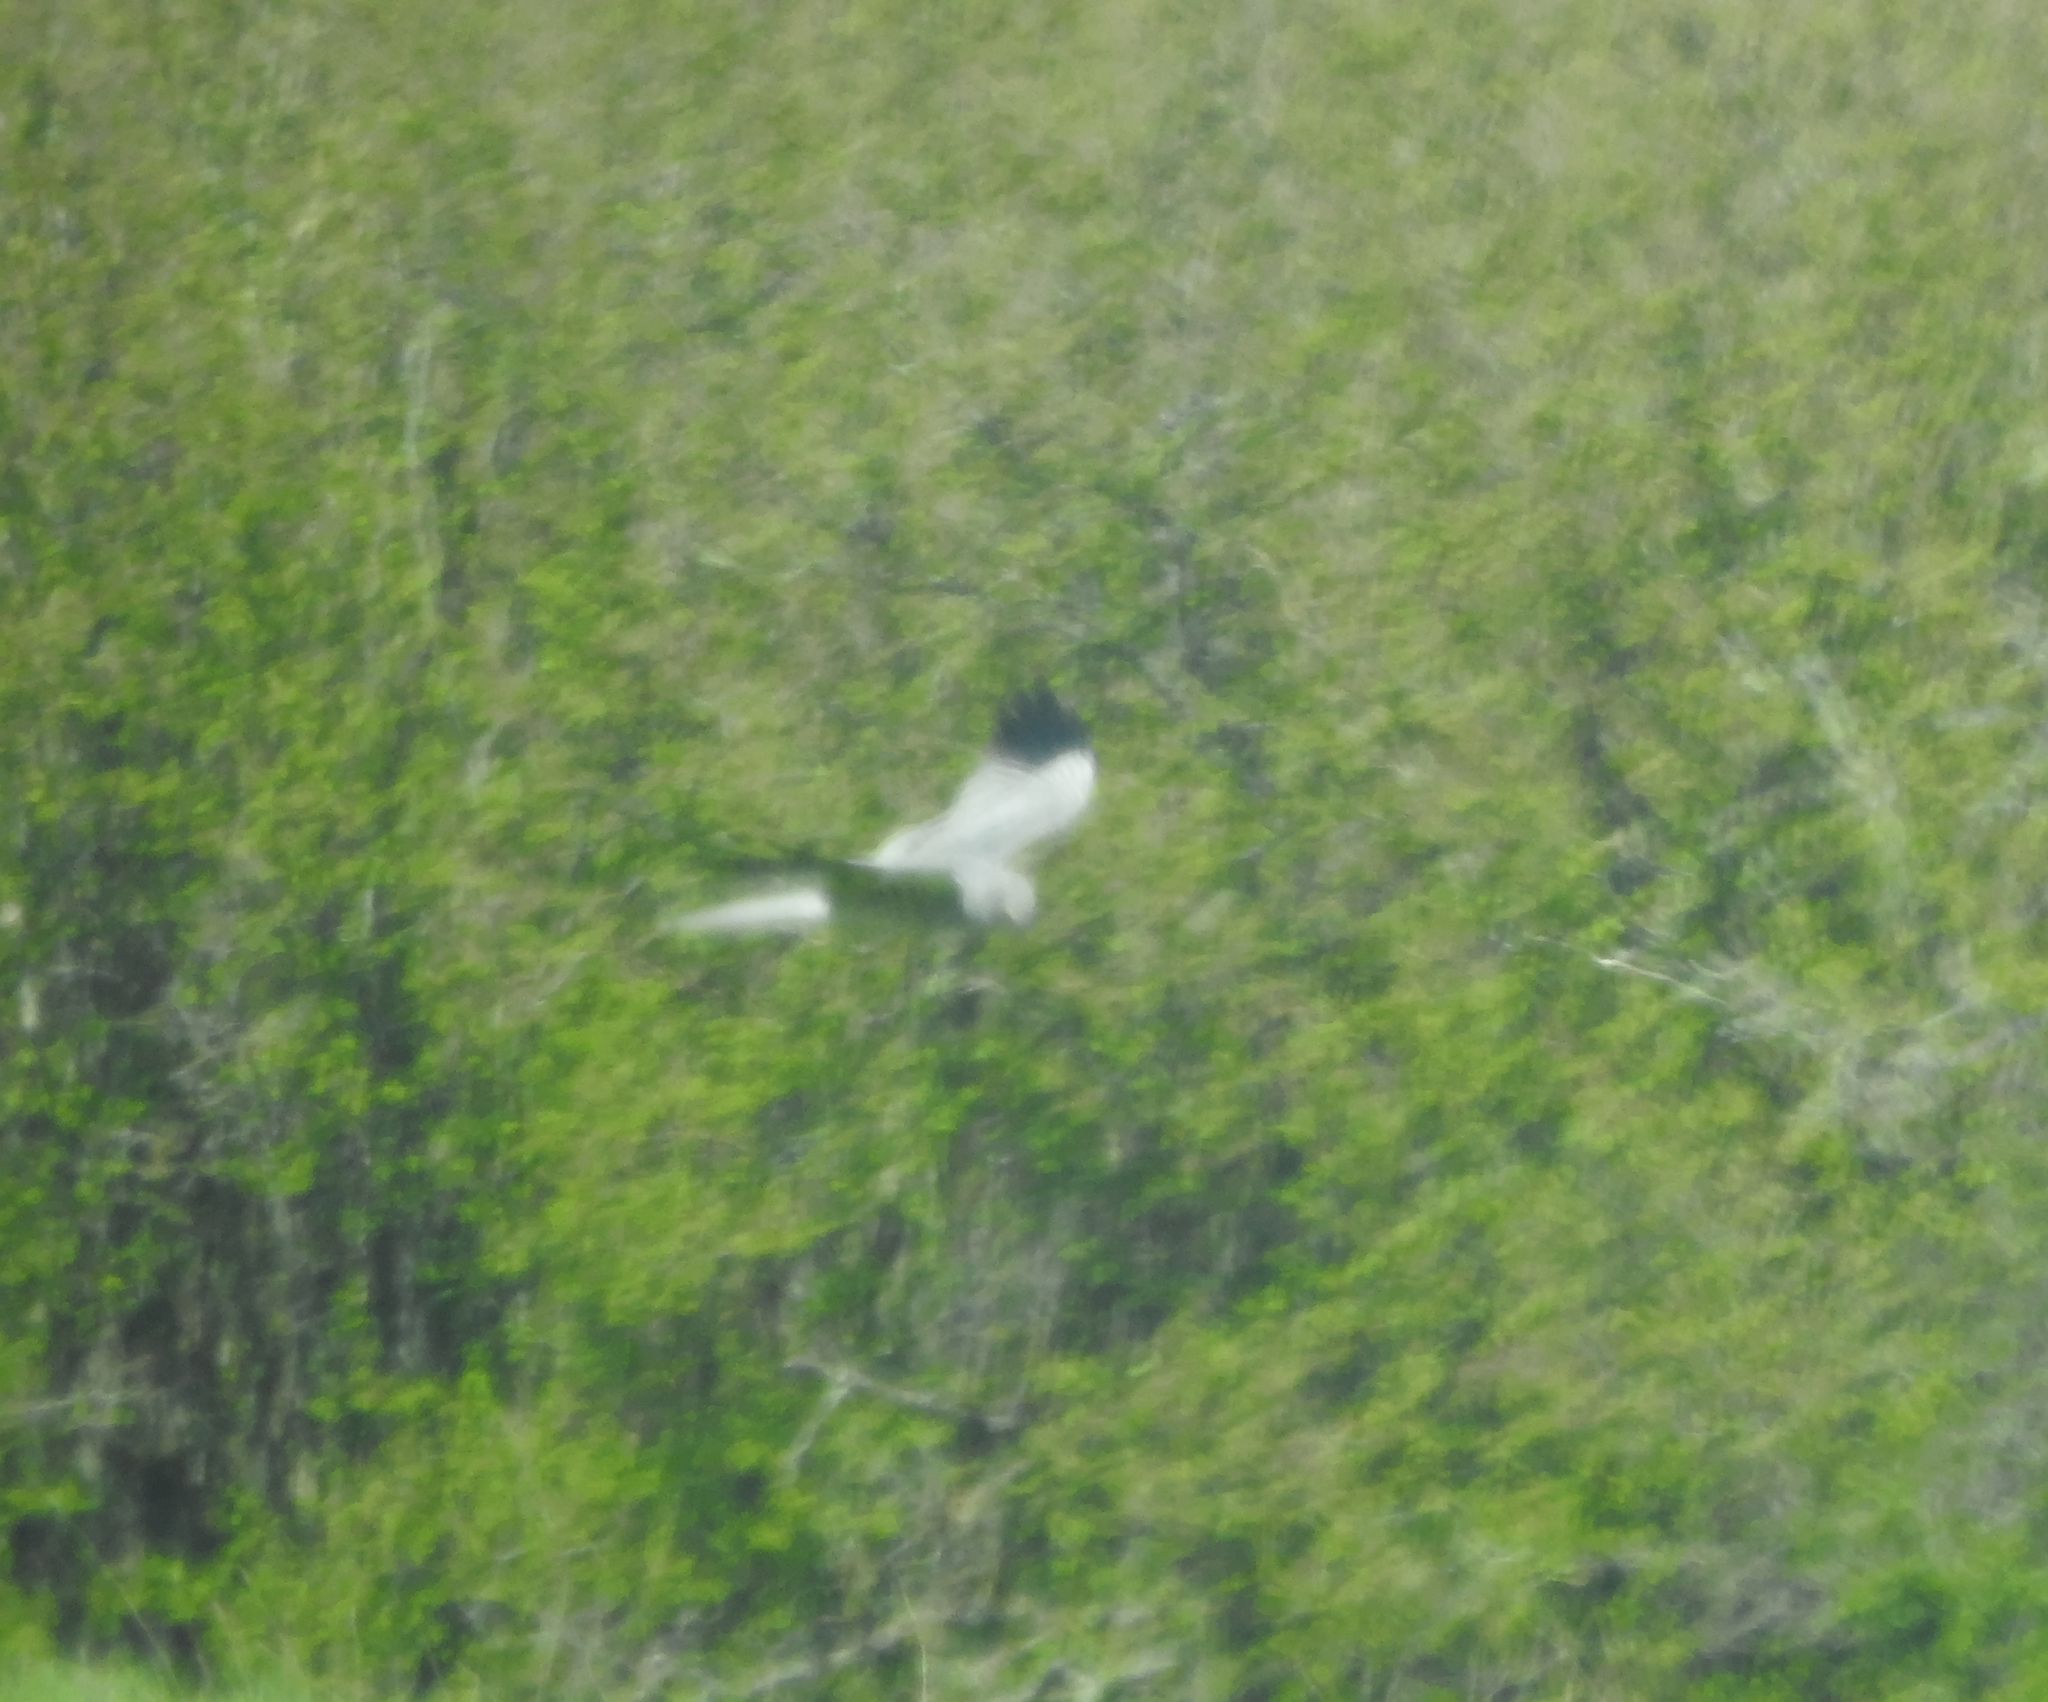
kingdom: Animalia
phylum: Chordata
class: Aves
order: Accipitriformes
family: Accipitridae
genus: Circus
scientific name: Circus pygargus
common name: Montagu's harrier
